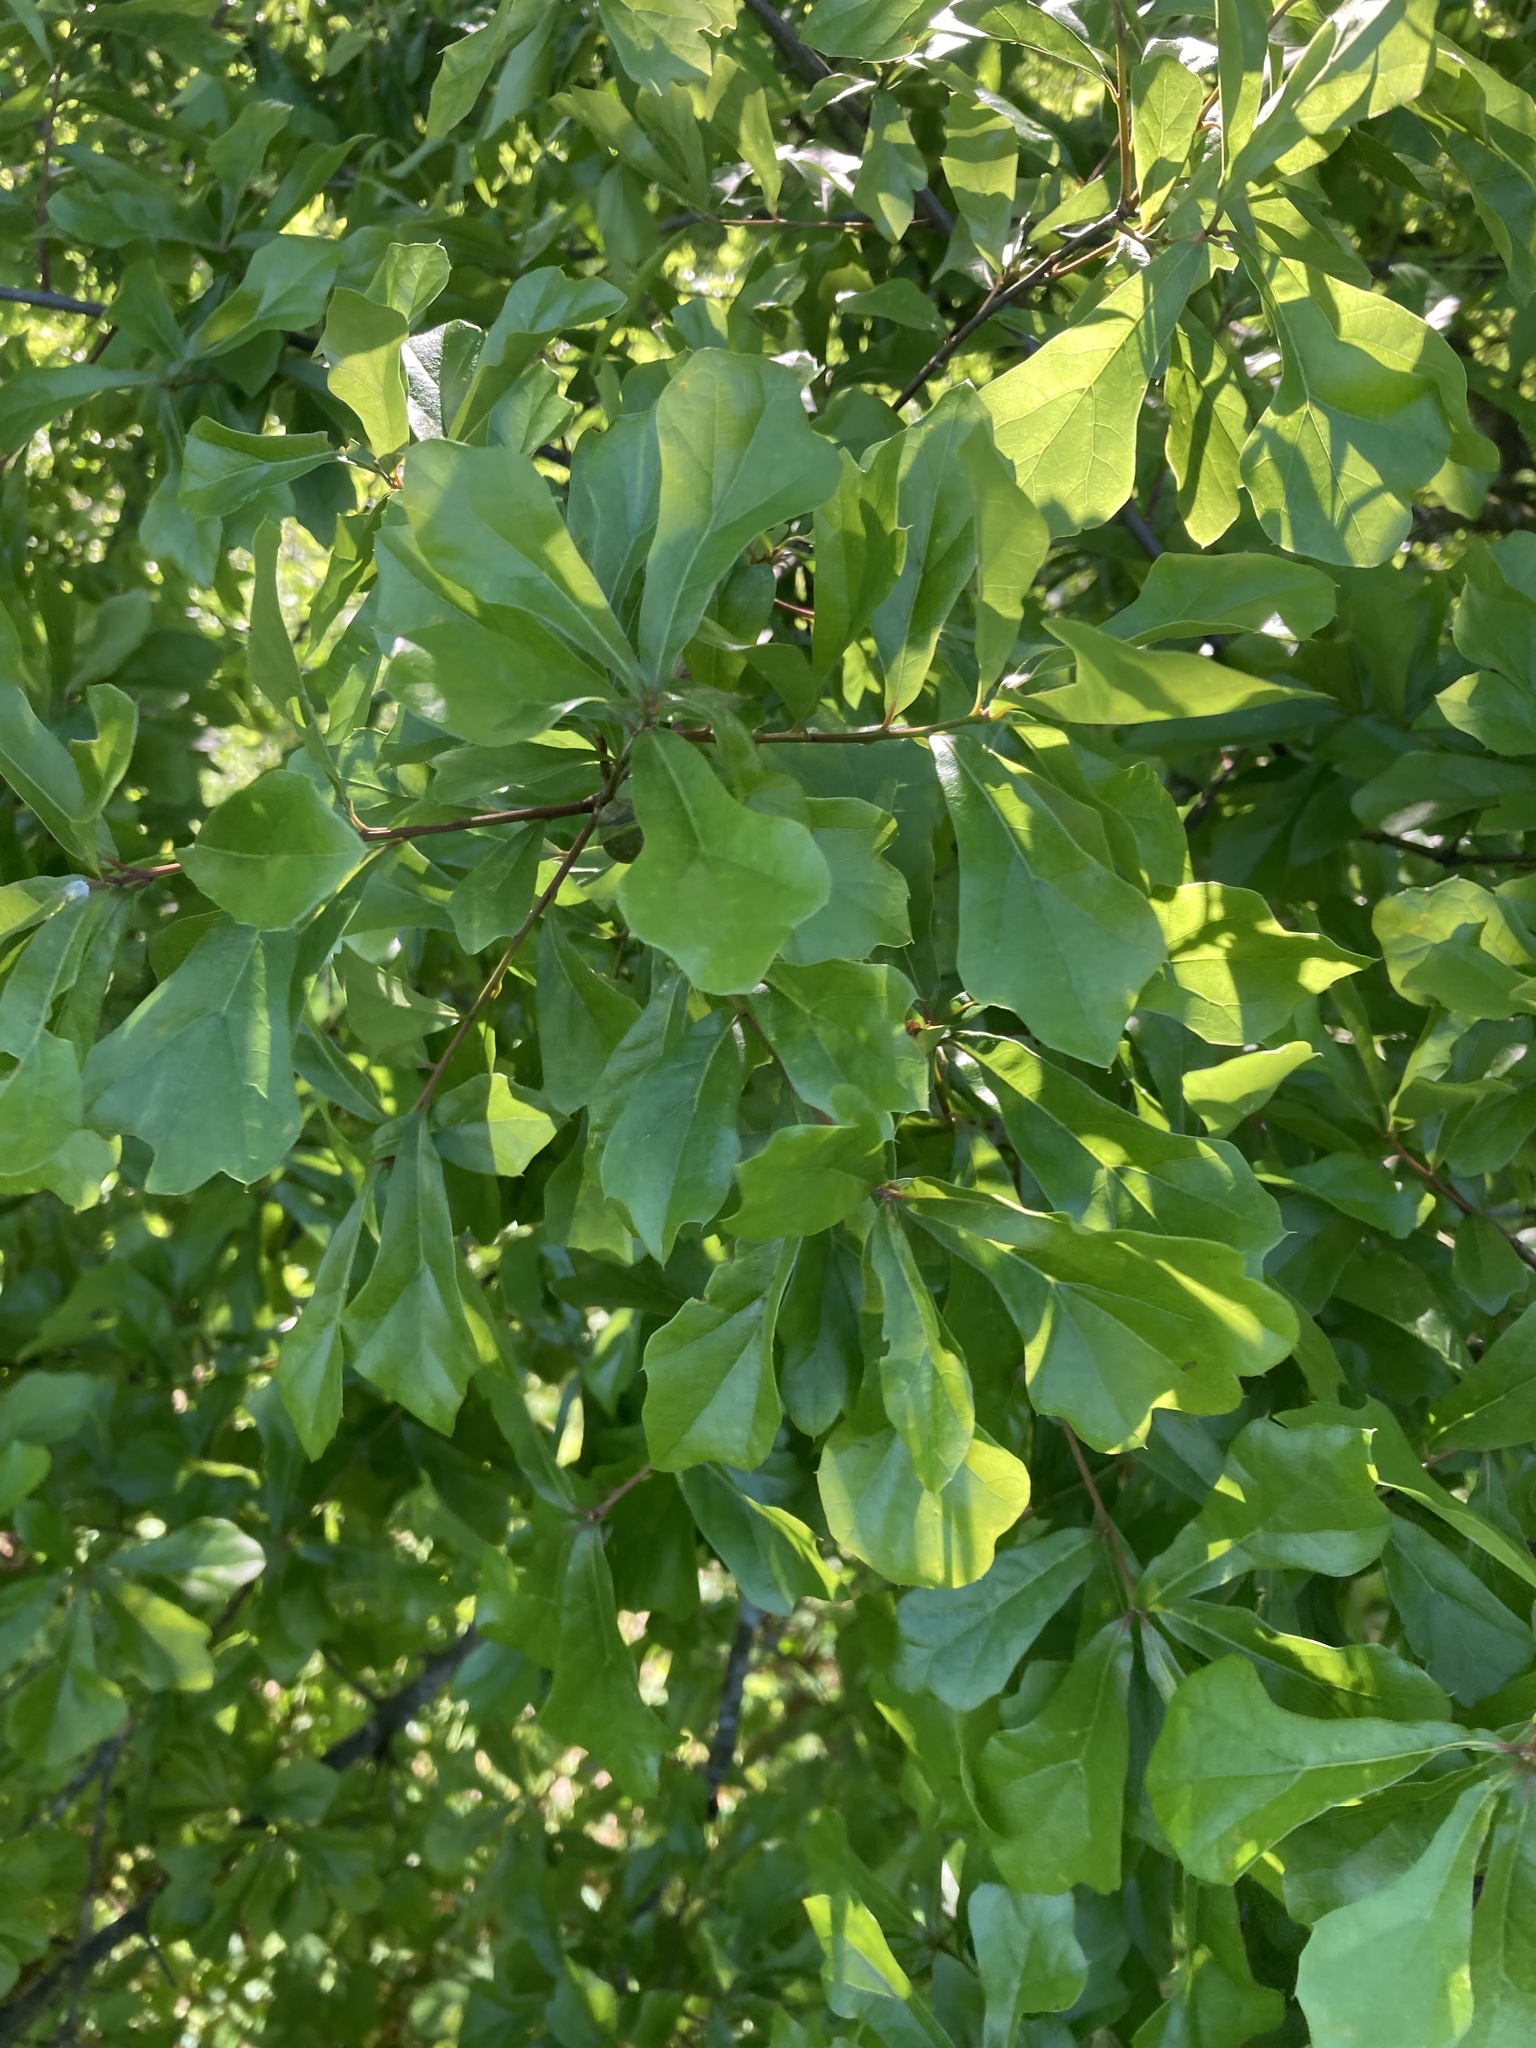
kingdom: Plantae
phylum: Tracheophyta
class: Magnoliopsida
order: Fagales
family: Fagaceae
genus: Quercus
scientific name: Quercus nigra
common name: Water oak
